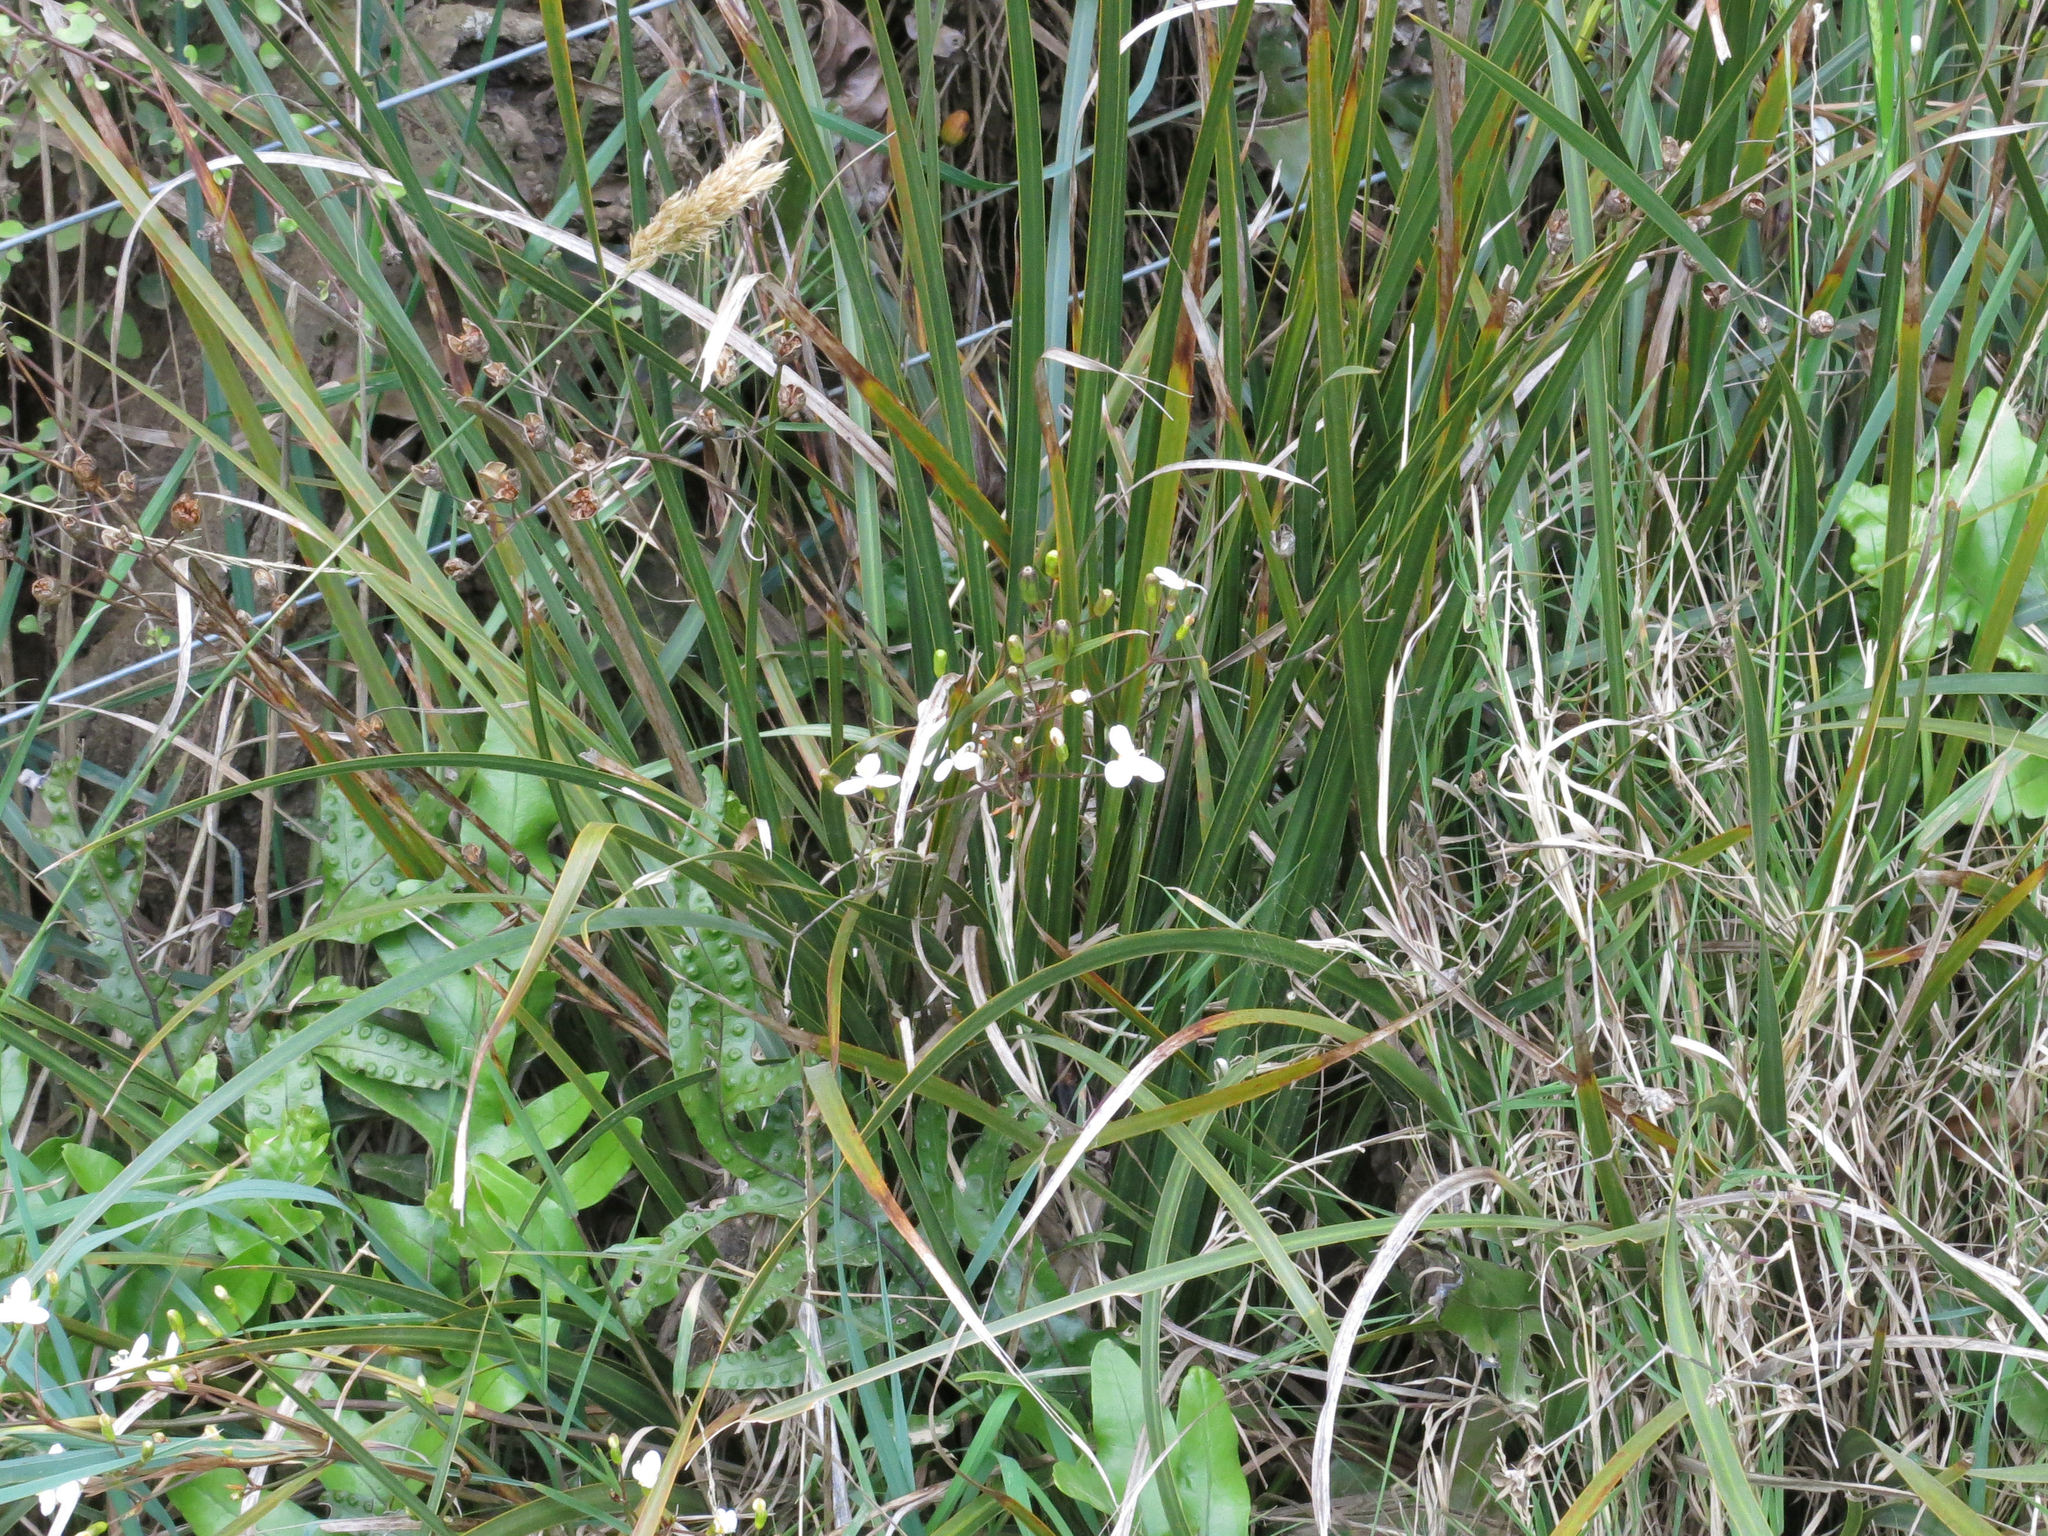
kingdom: Plantae
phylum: Tracheophyta
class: Liliopsida
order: Asparagales
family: Iridaceae
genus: Libertia
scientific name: Libertia ixioides
